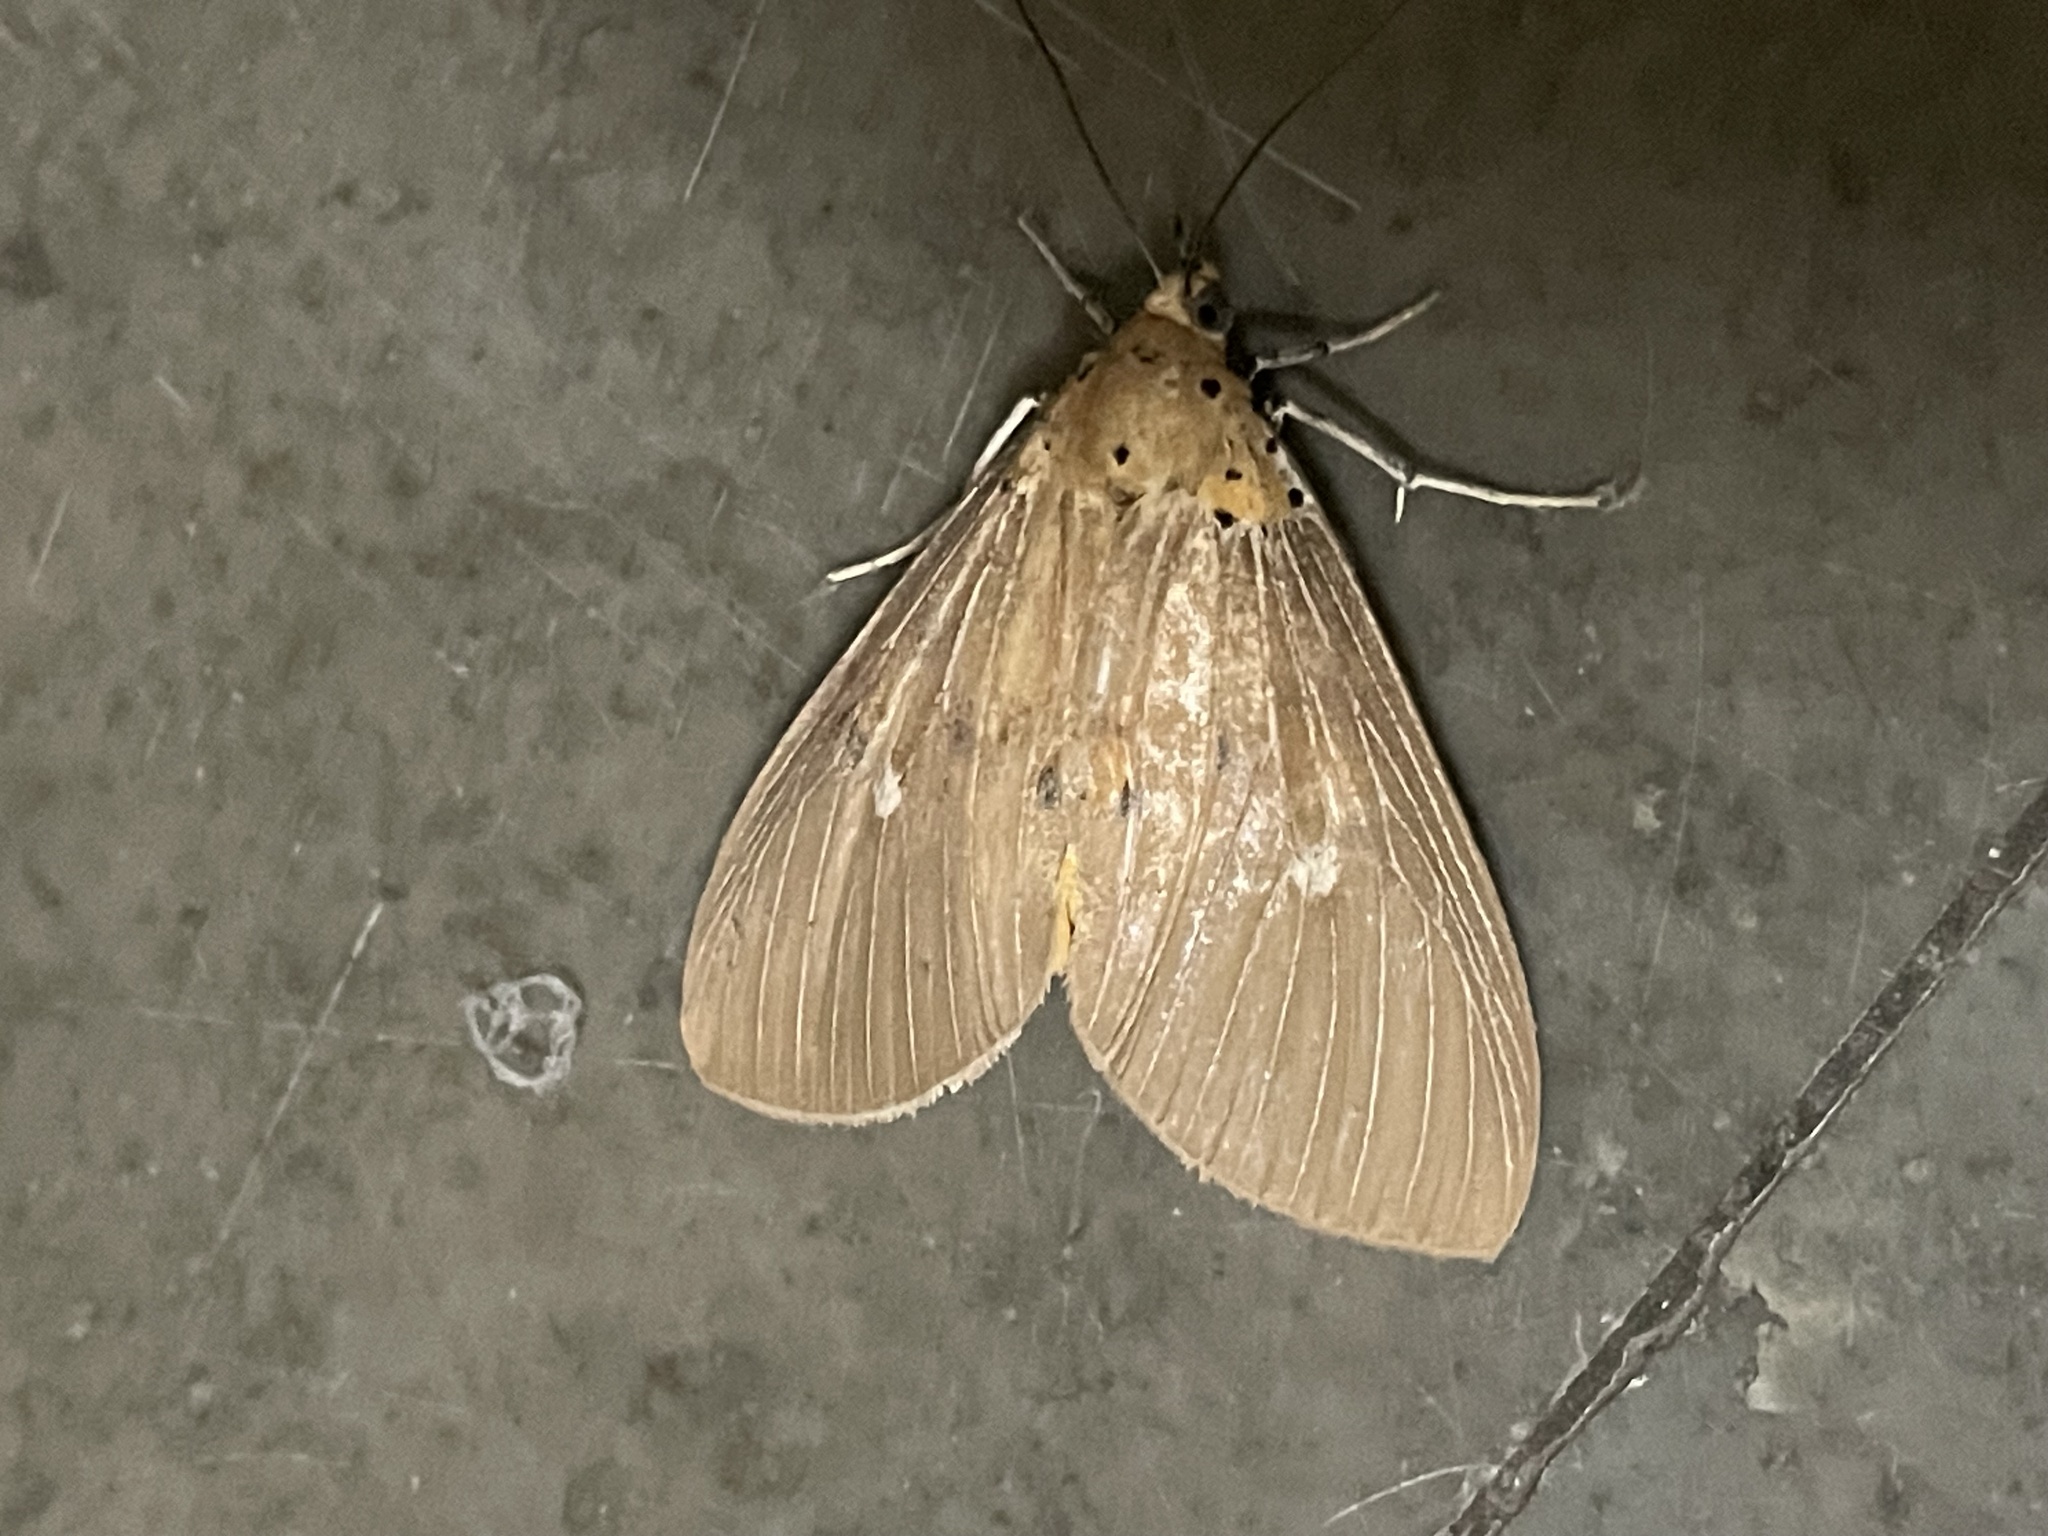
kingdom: Animalia
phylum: Arthropoda
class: Insecta
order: Lepidoptera
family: Erebidae
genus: Asota
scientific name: Asota caricae
